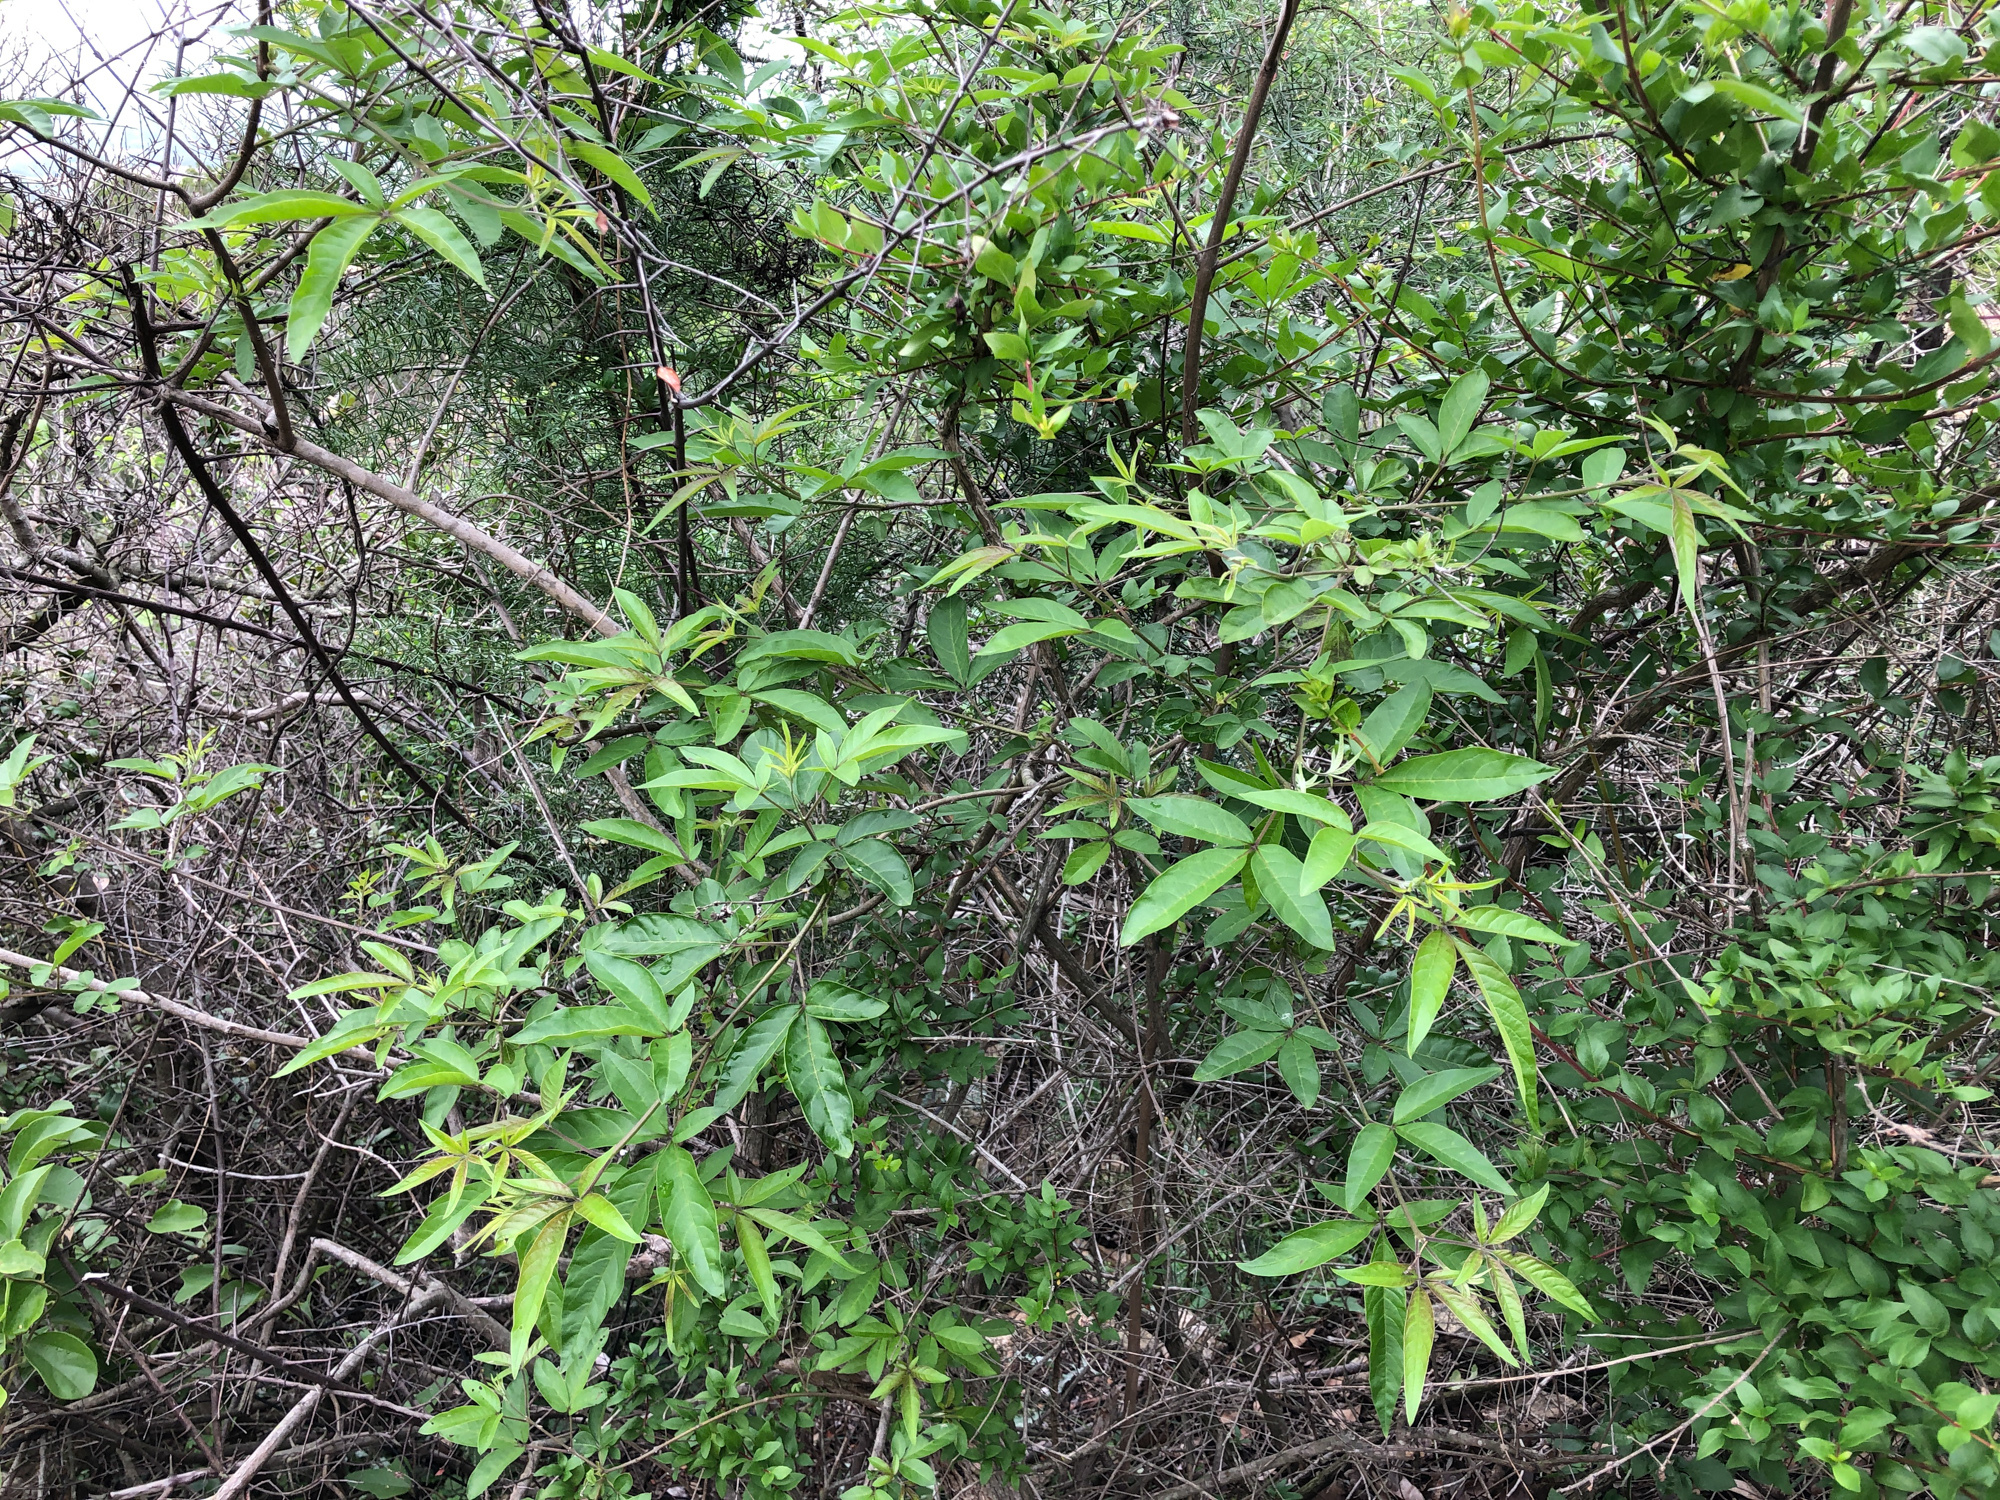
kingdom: Plantae
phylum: Tracheophyta
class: Magnoliopsida
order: Lamiales
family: Lamiaceae
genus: Vitex
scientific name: Vitex negundo
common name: Chinese chastetree
